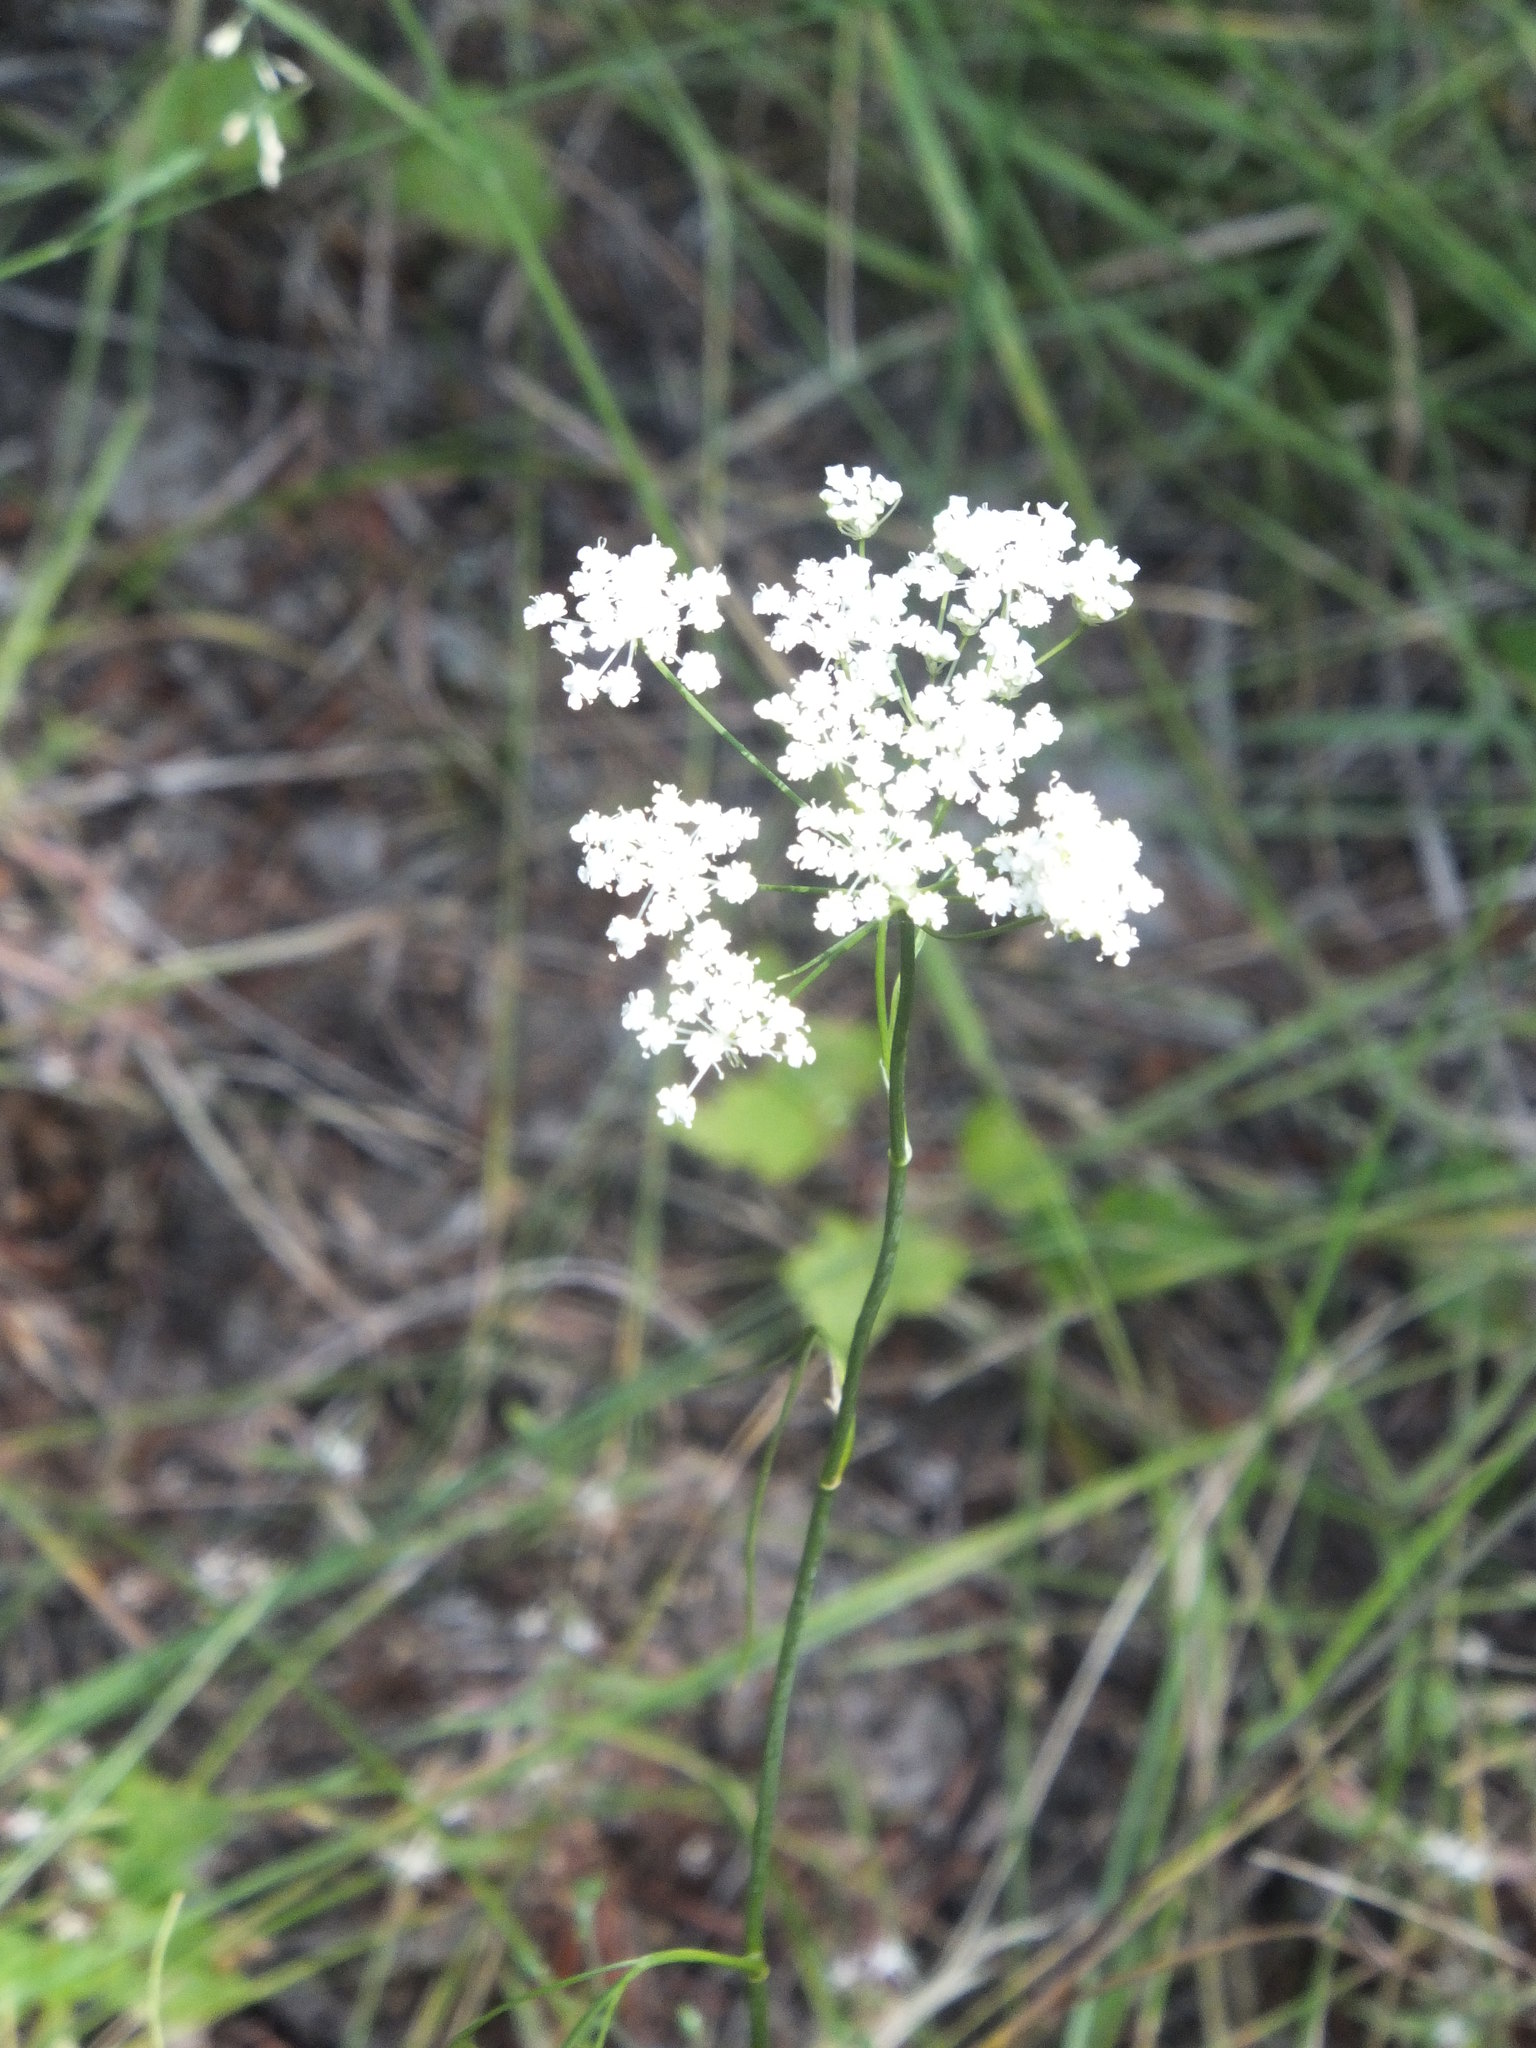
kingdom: Plantae
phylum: Tracheophyta
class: Magnoliopsida
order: Apiales
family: Apiaceae
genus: Perideridia
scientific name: Perideridia gairdneri
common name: False caraway
